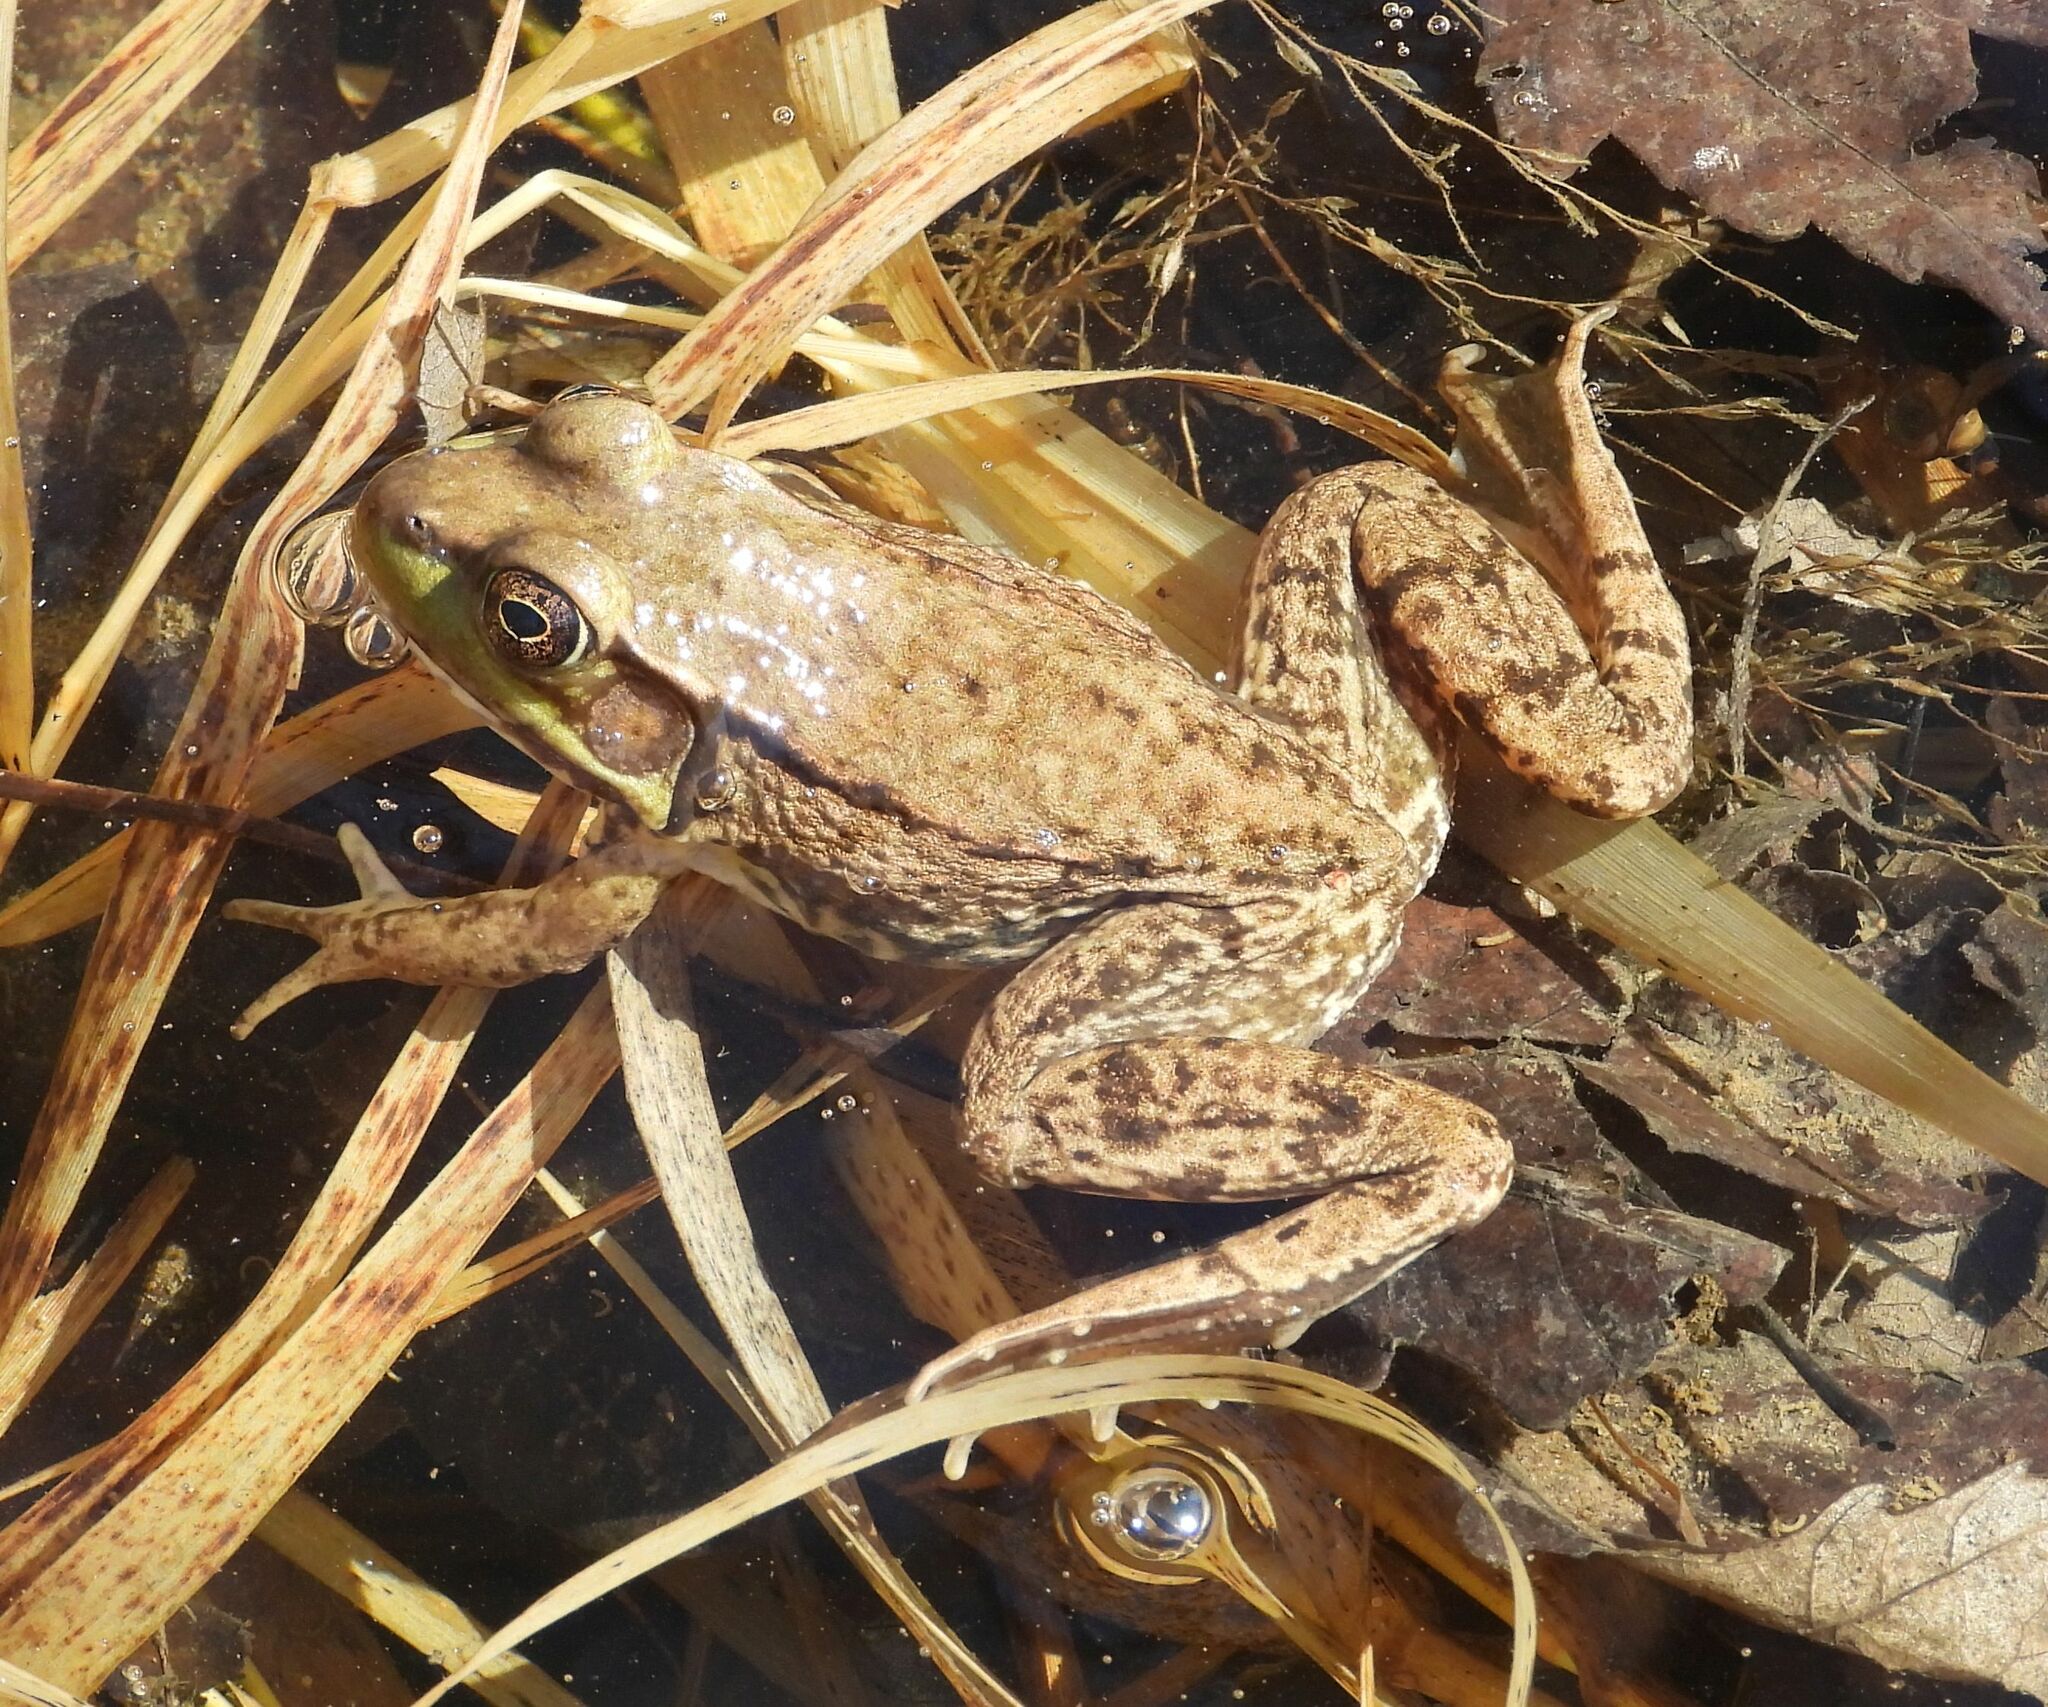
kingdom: Animalia
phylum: Chordata
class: Amphibia
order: Anura
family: Ranidae
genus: Lithobates
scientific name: Lithobates clamitans
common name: Green frog
